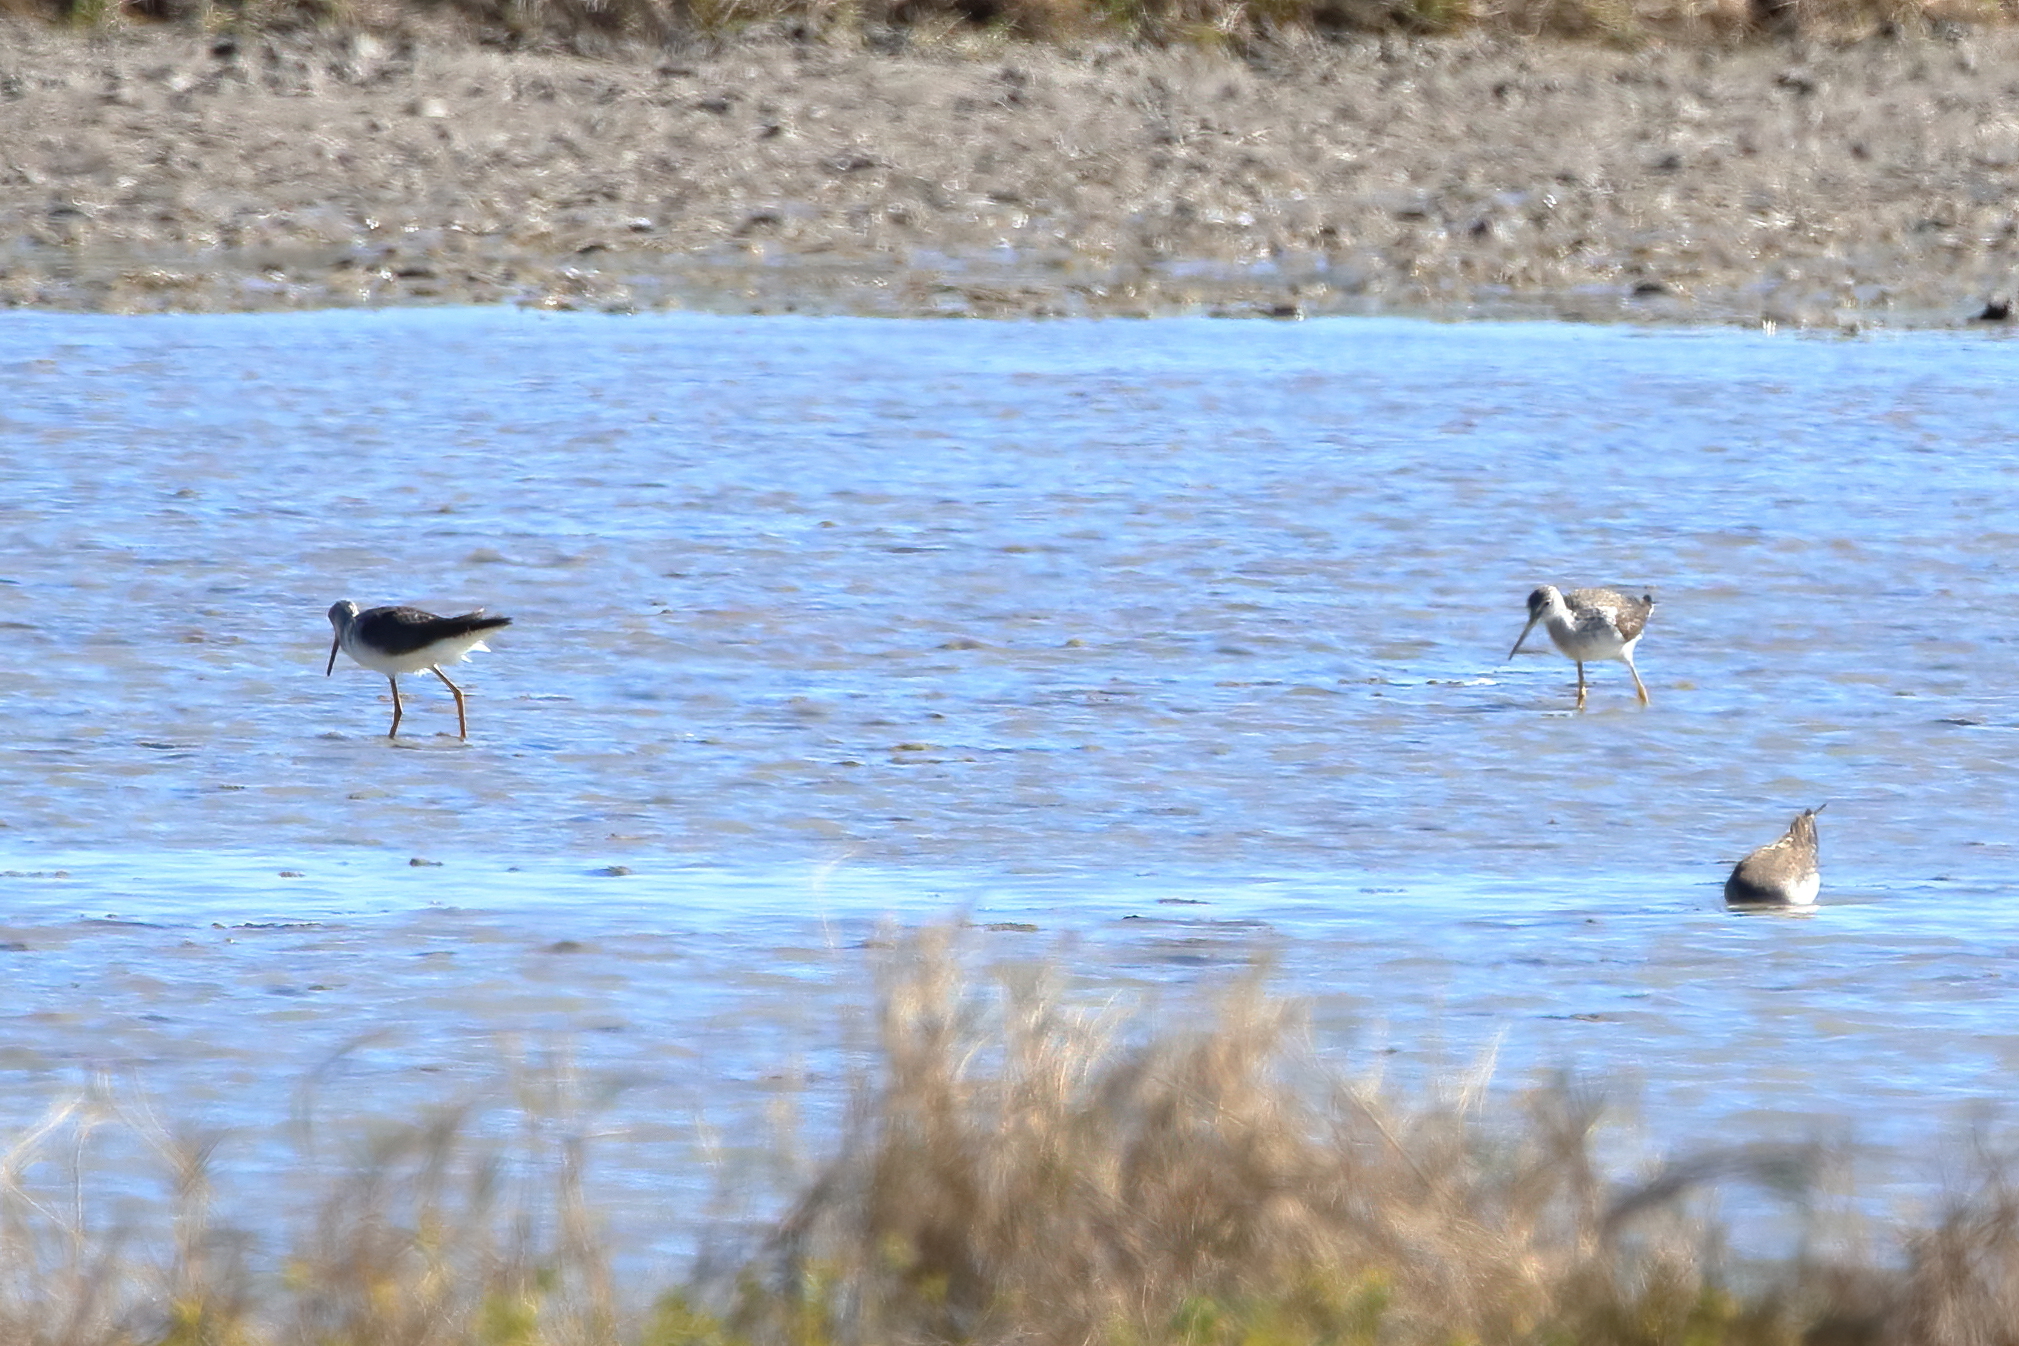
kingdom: Animalia
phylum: Chordata
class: Aves
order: Charadriiformes
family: Scolopacidae
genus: Tringa
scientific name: Tringa melanoleuca
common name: Greater yellowlegs
